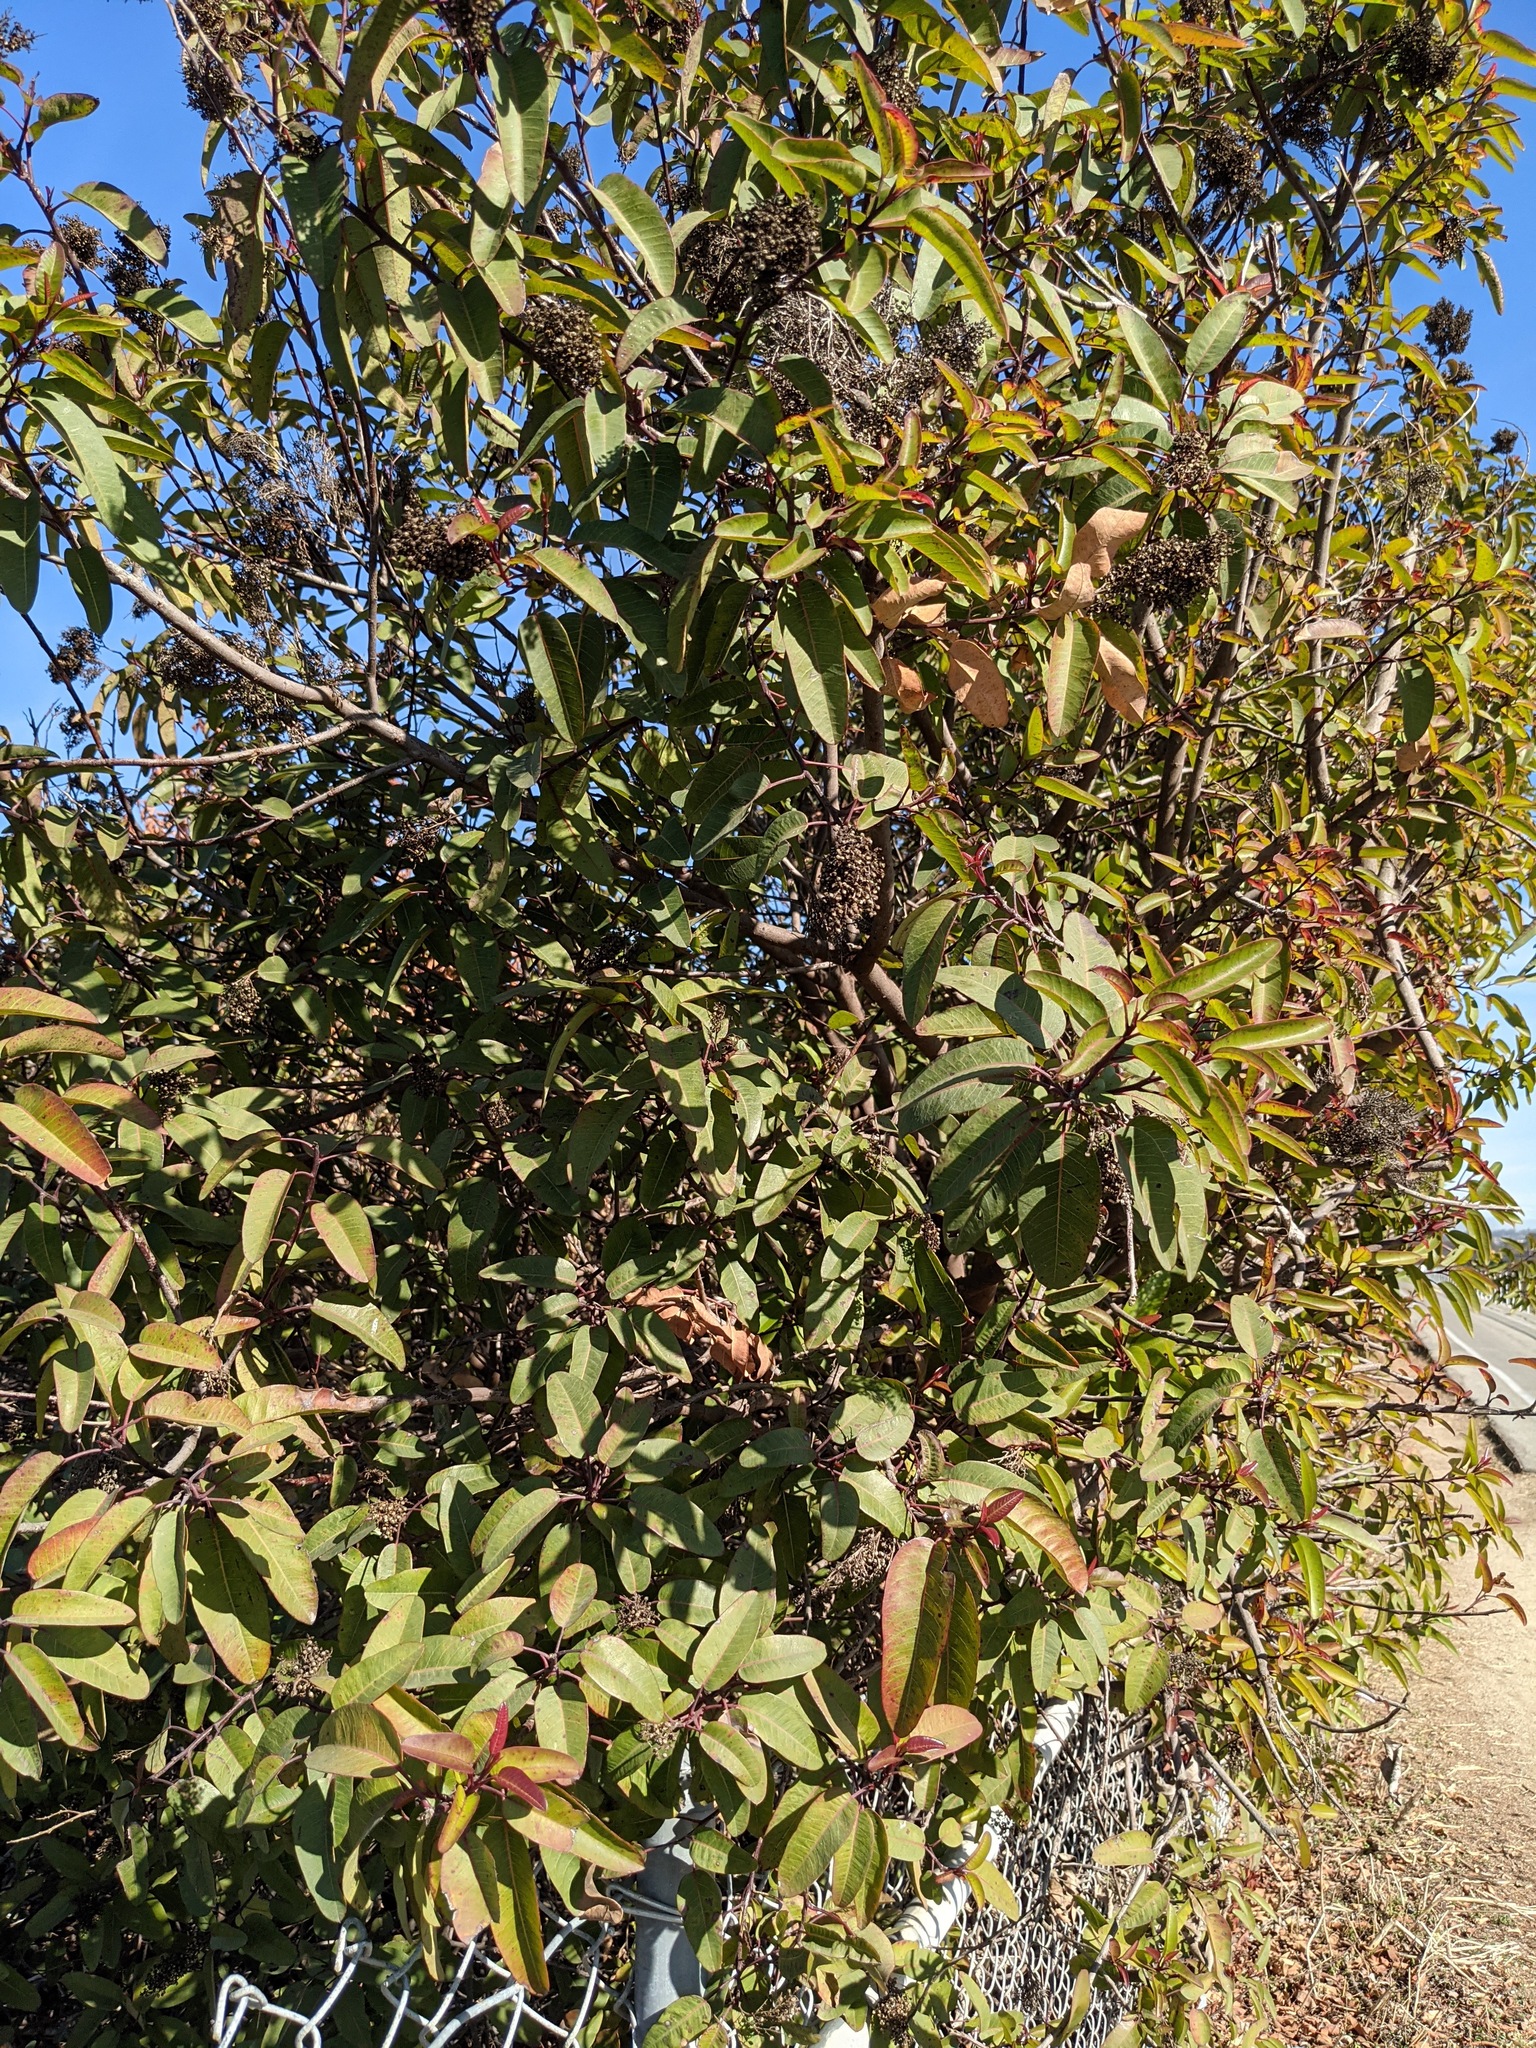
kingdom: Plantae
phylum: Tracheophyta
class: Magnoliopsida
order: Sapindales
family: Anacardiaceae
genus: Malosma
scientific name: Malosma laurina
